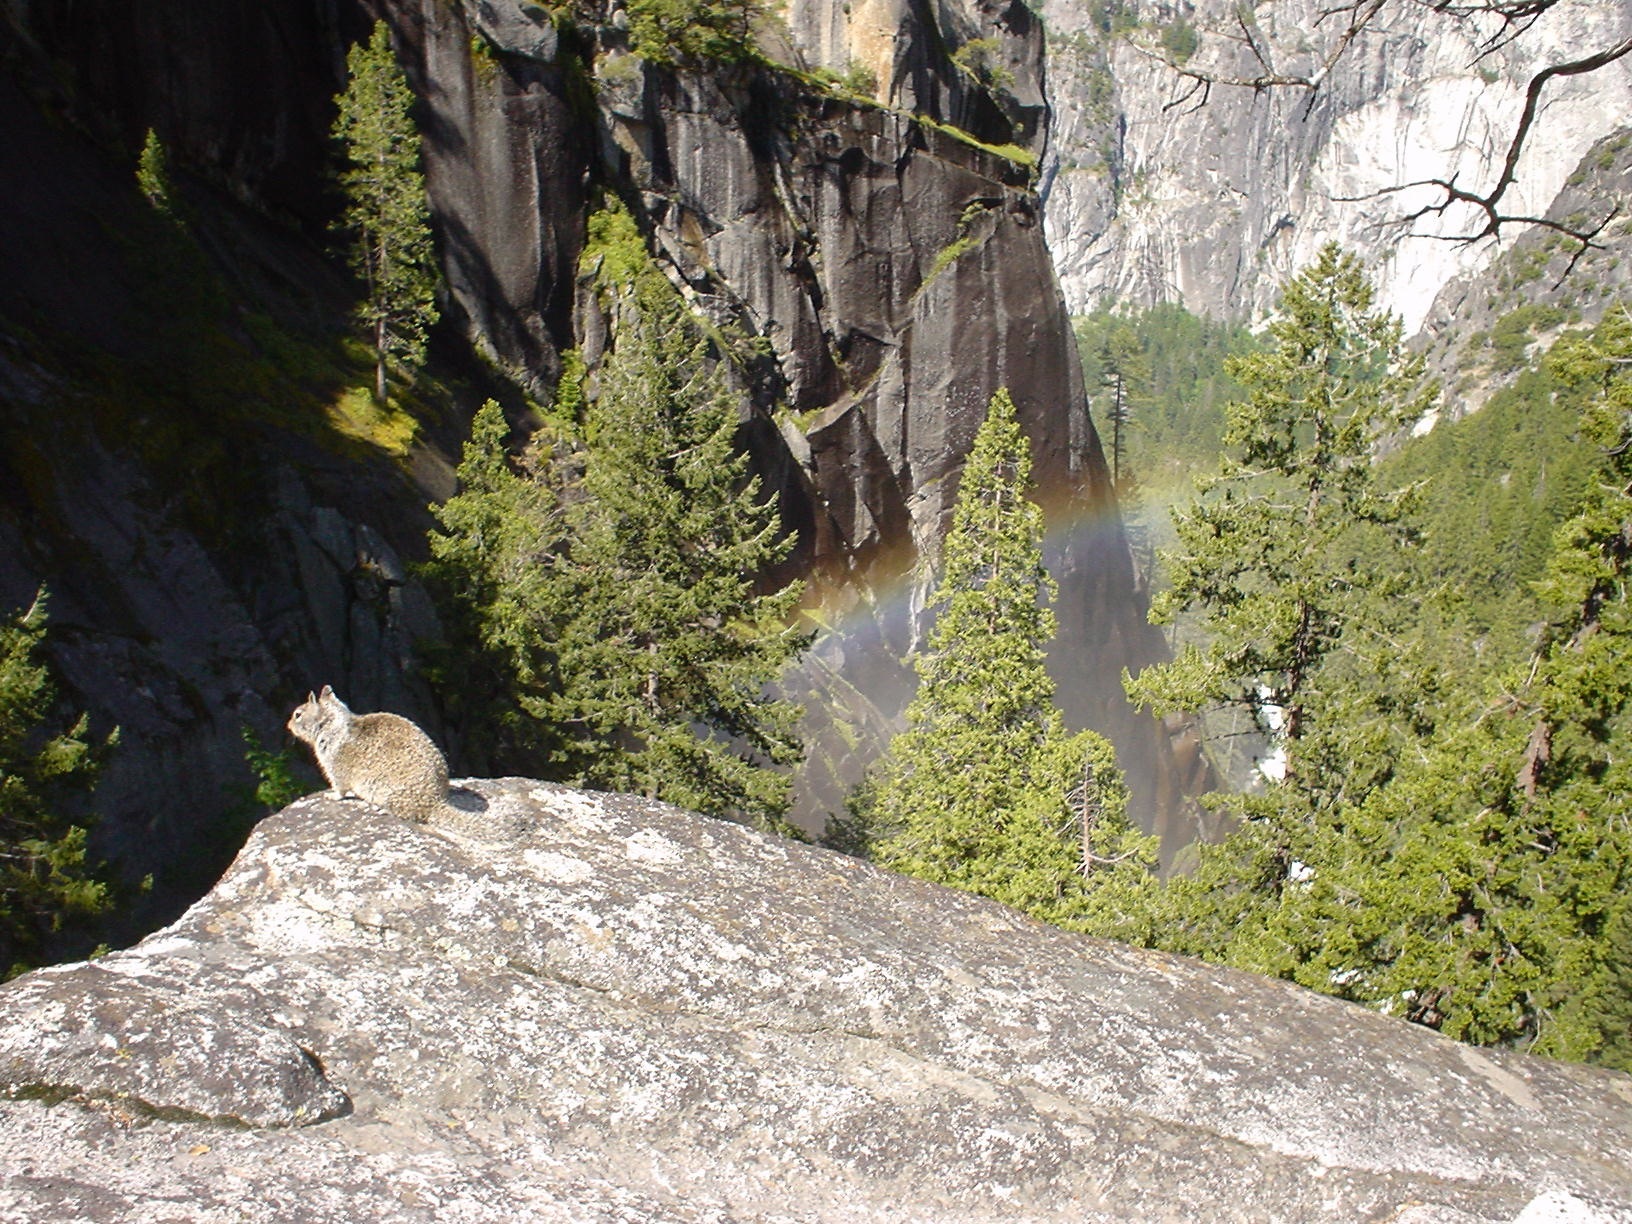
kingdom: Animalia
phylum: Chordata
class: Mammalia
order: Rodentia
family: Sciuridae
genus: Otospermophilus
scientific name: Otospermophilus beecheyi
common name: California ground squirrel
